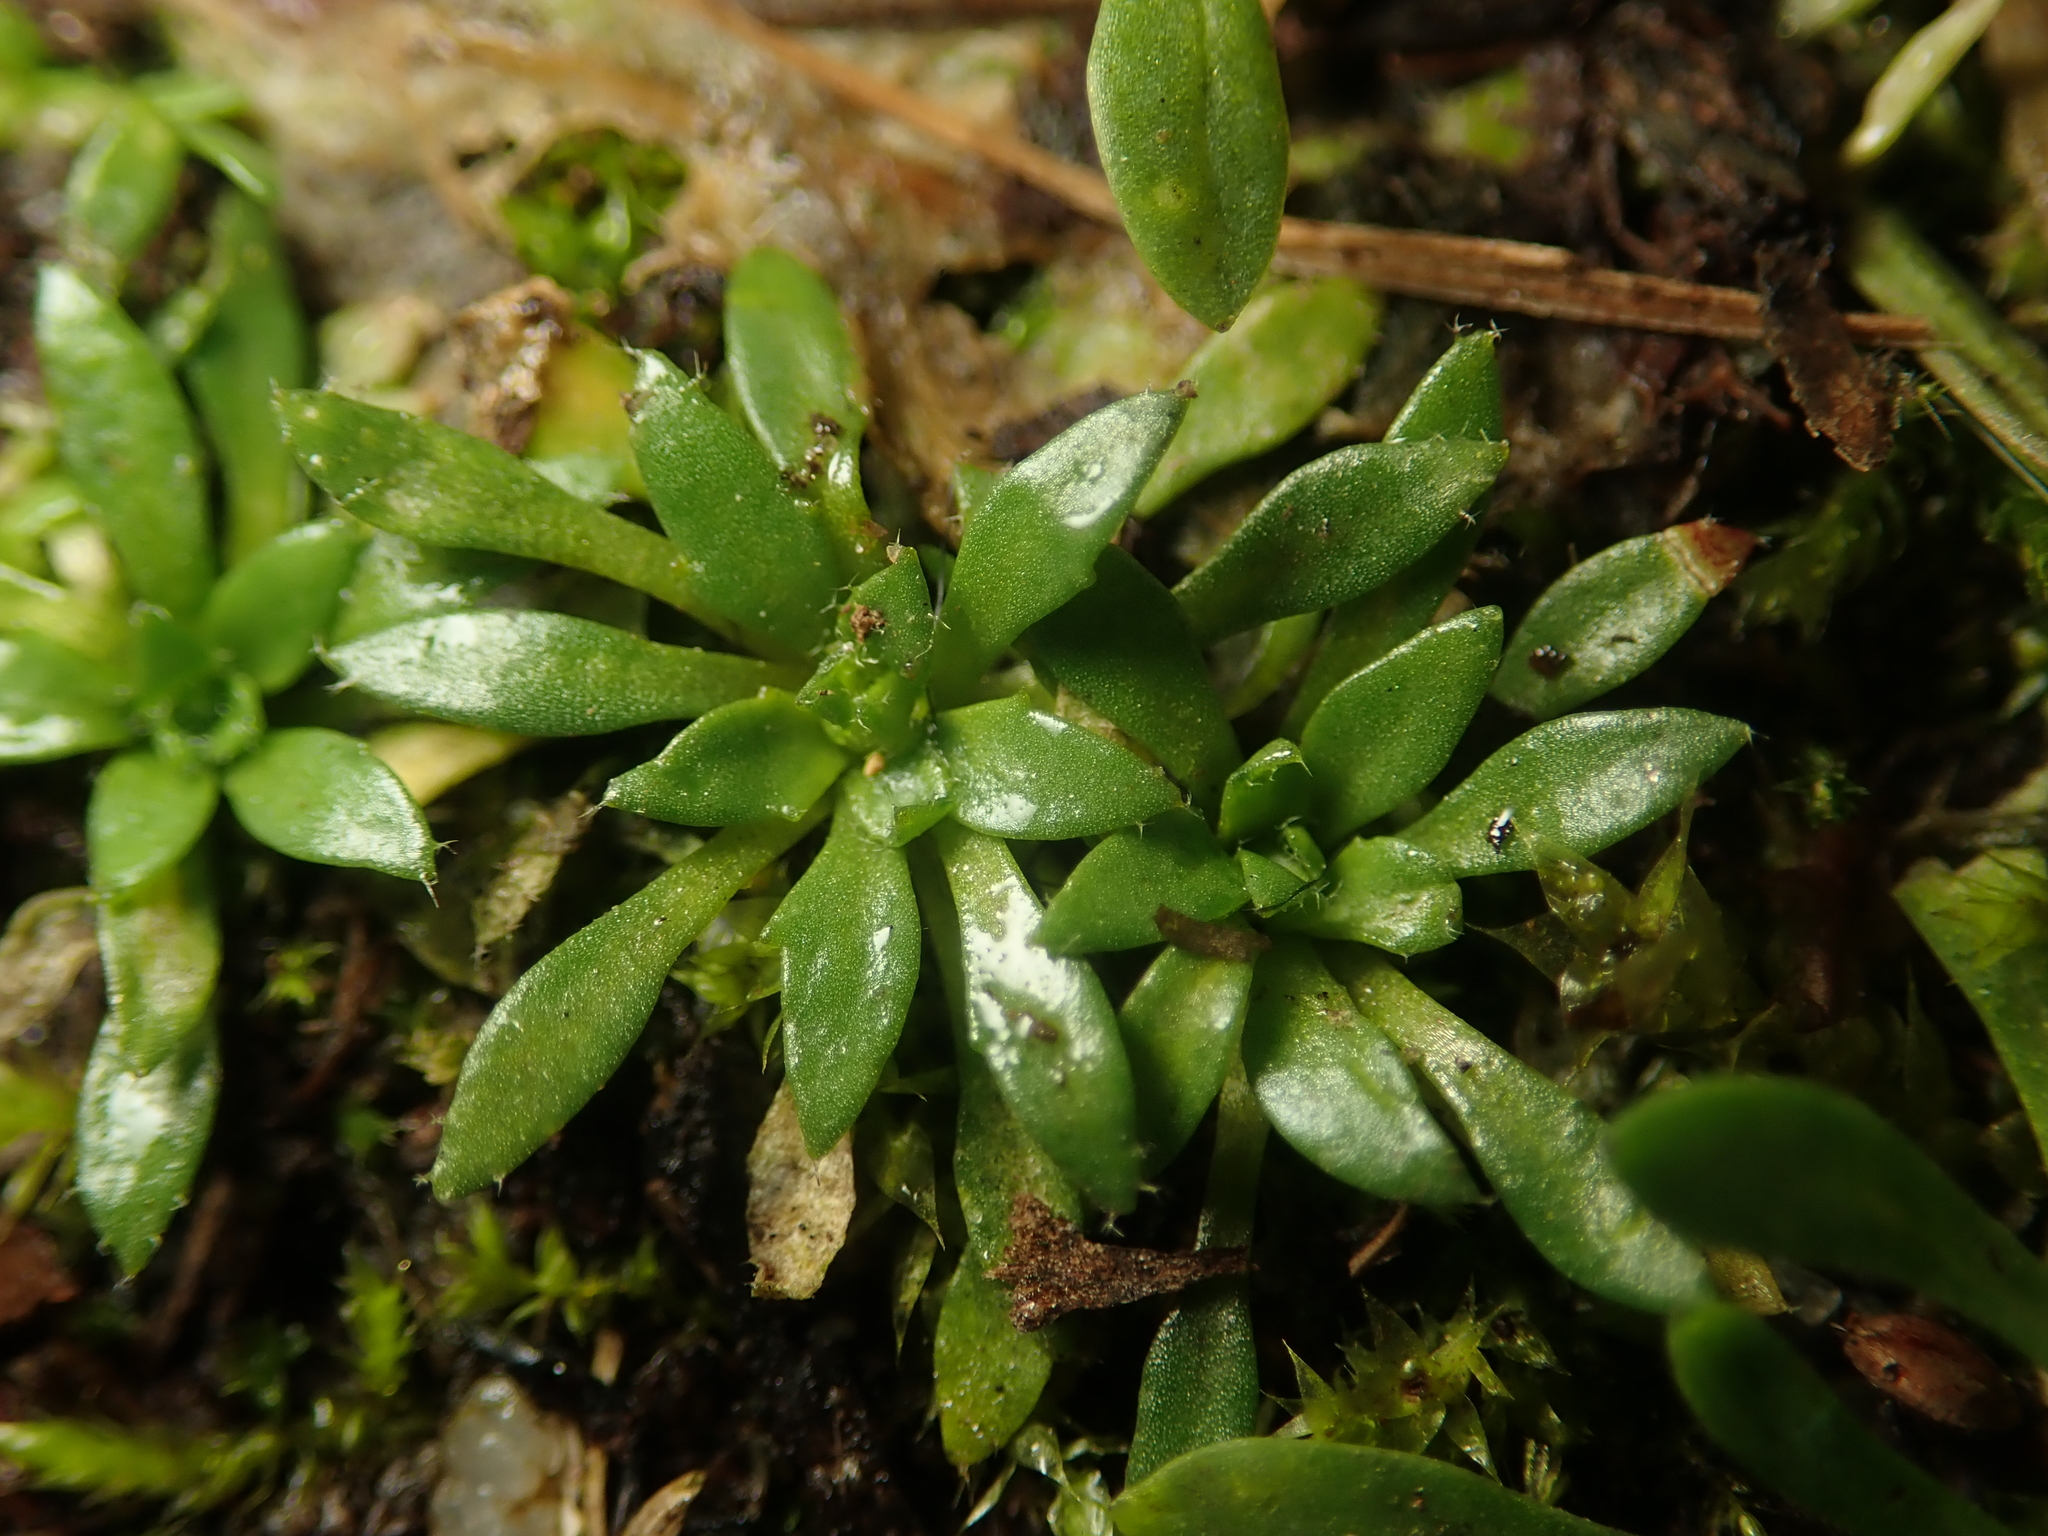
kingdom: Plantae
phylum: Tracheophyta
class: Magnoliopsida
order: Brassicales
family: Brassicaceae
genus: Draba
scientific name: Draba verna
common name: Spring draba
